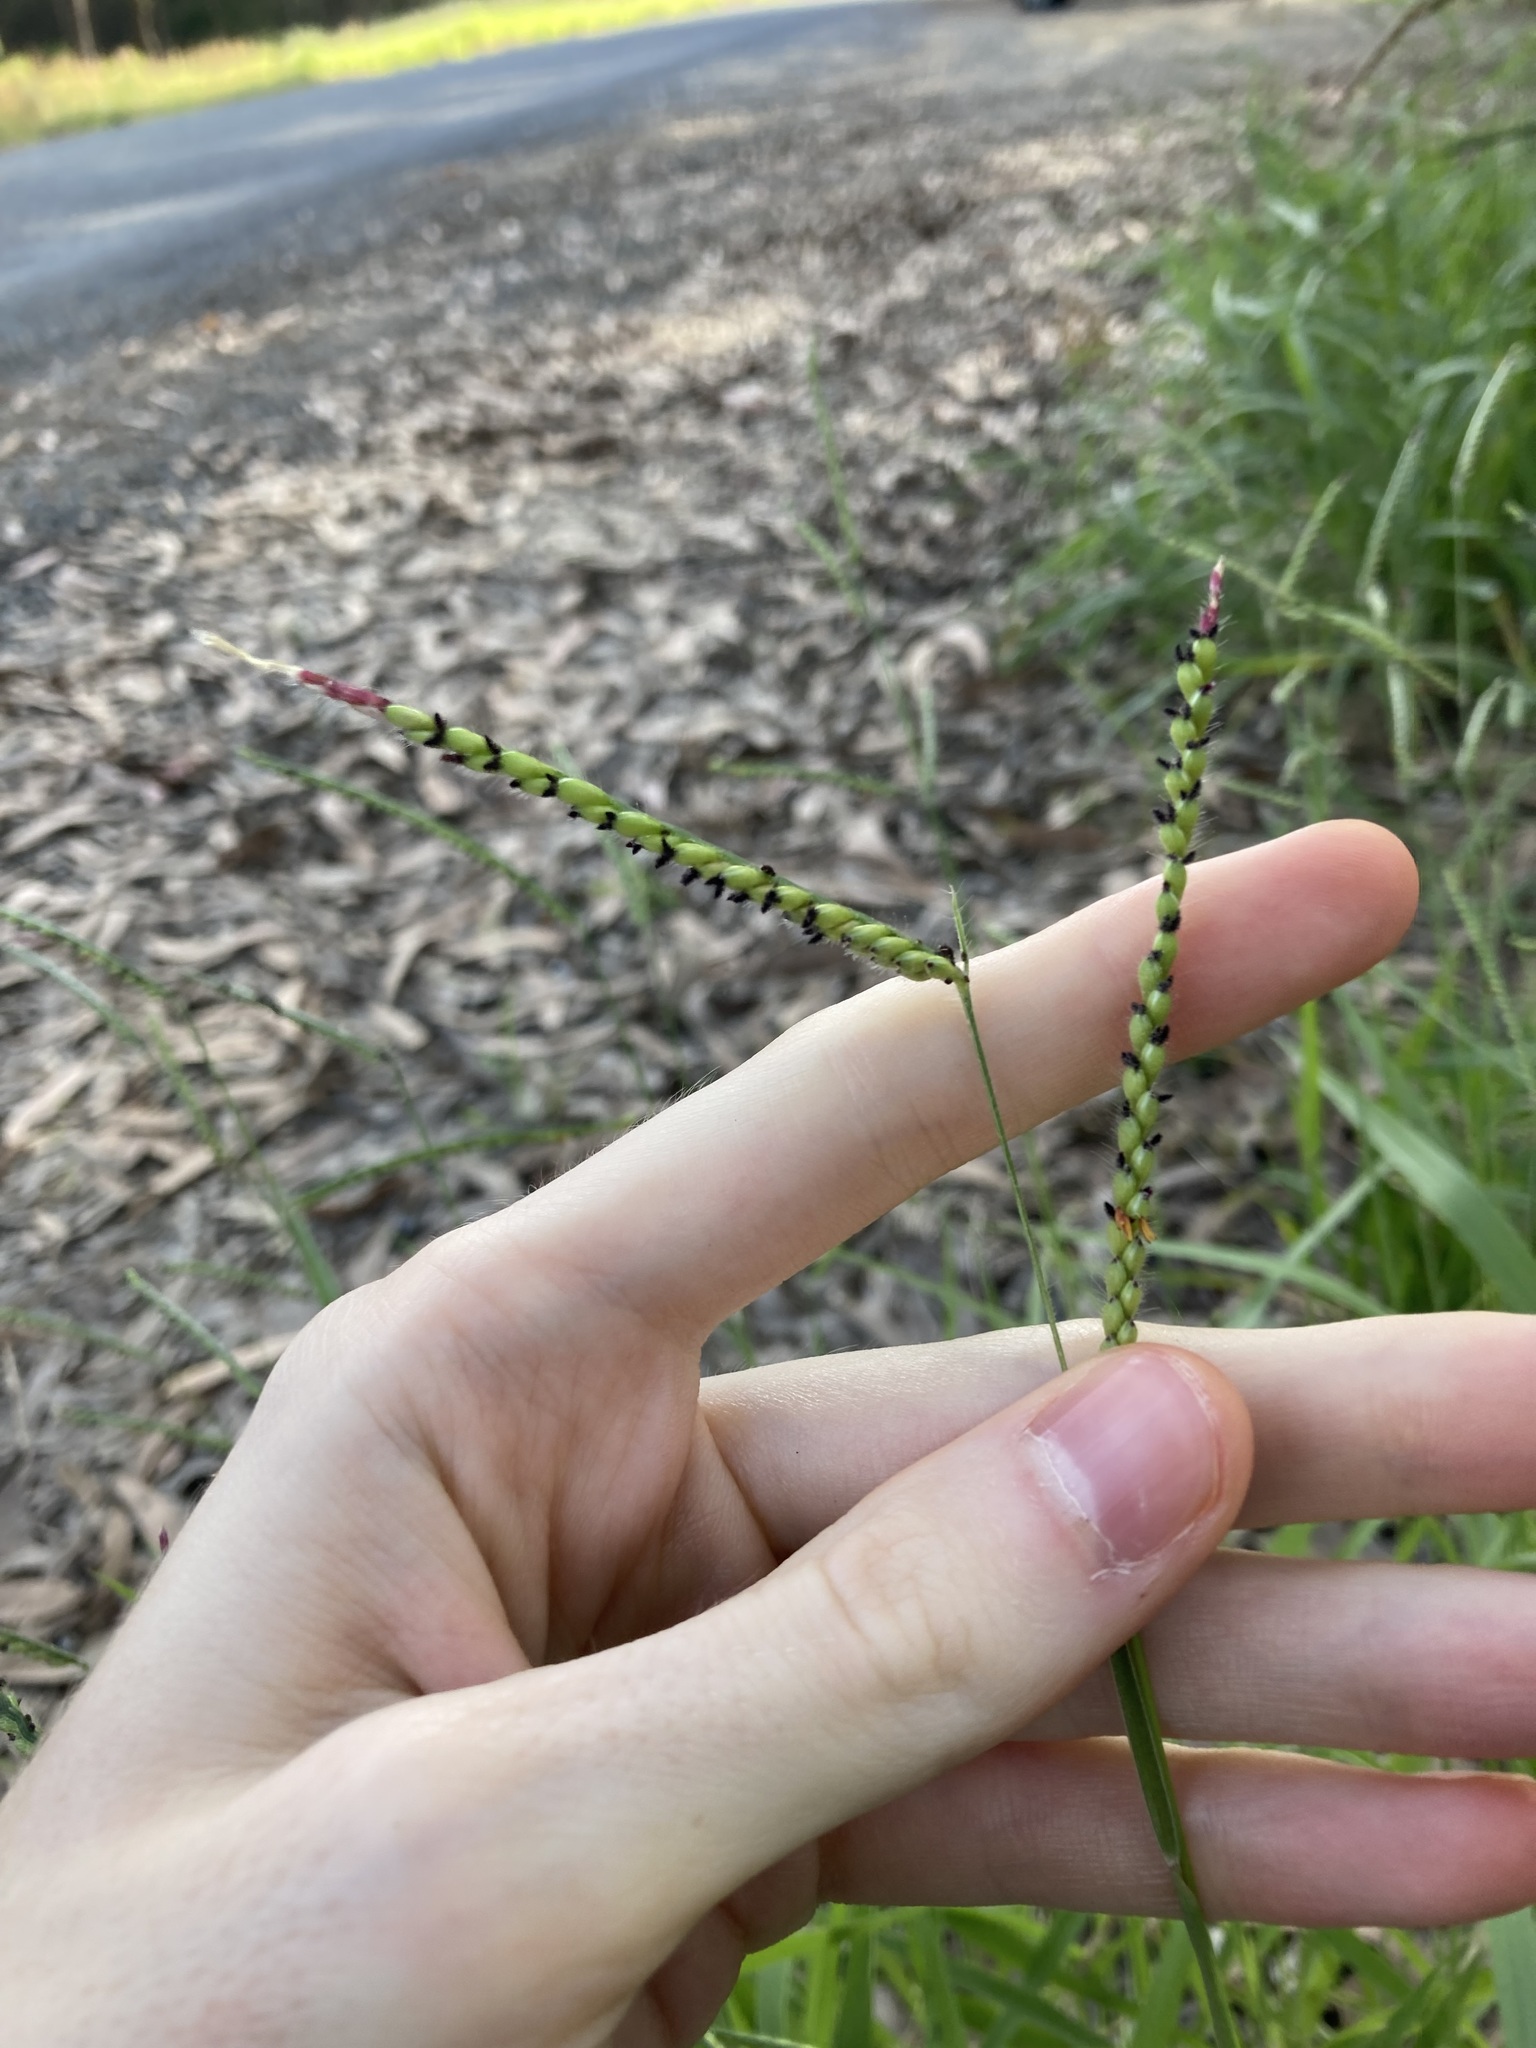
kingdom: Plantae
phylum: Tracheophyta
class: Liliopsida
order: Poales
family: Poaceae
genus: Urochloa
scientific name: Urochloa eminii
